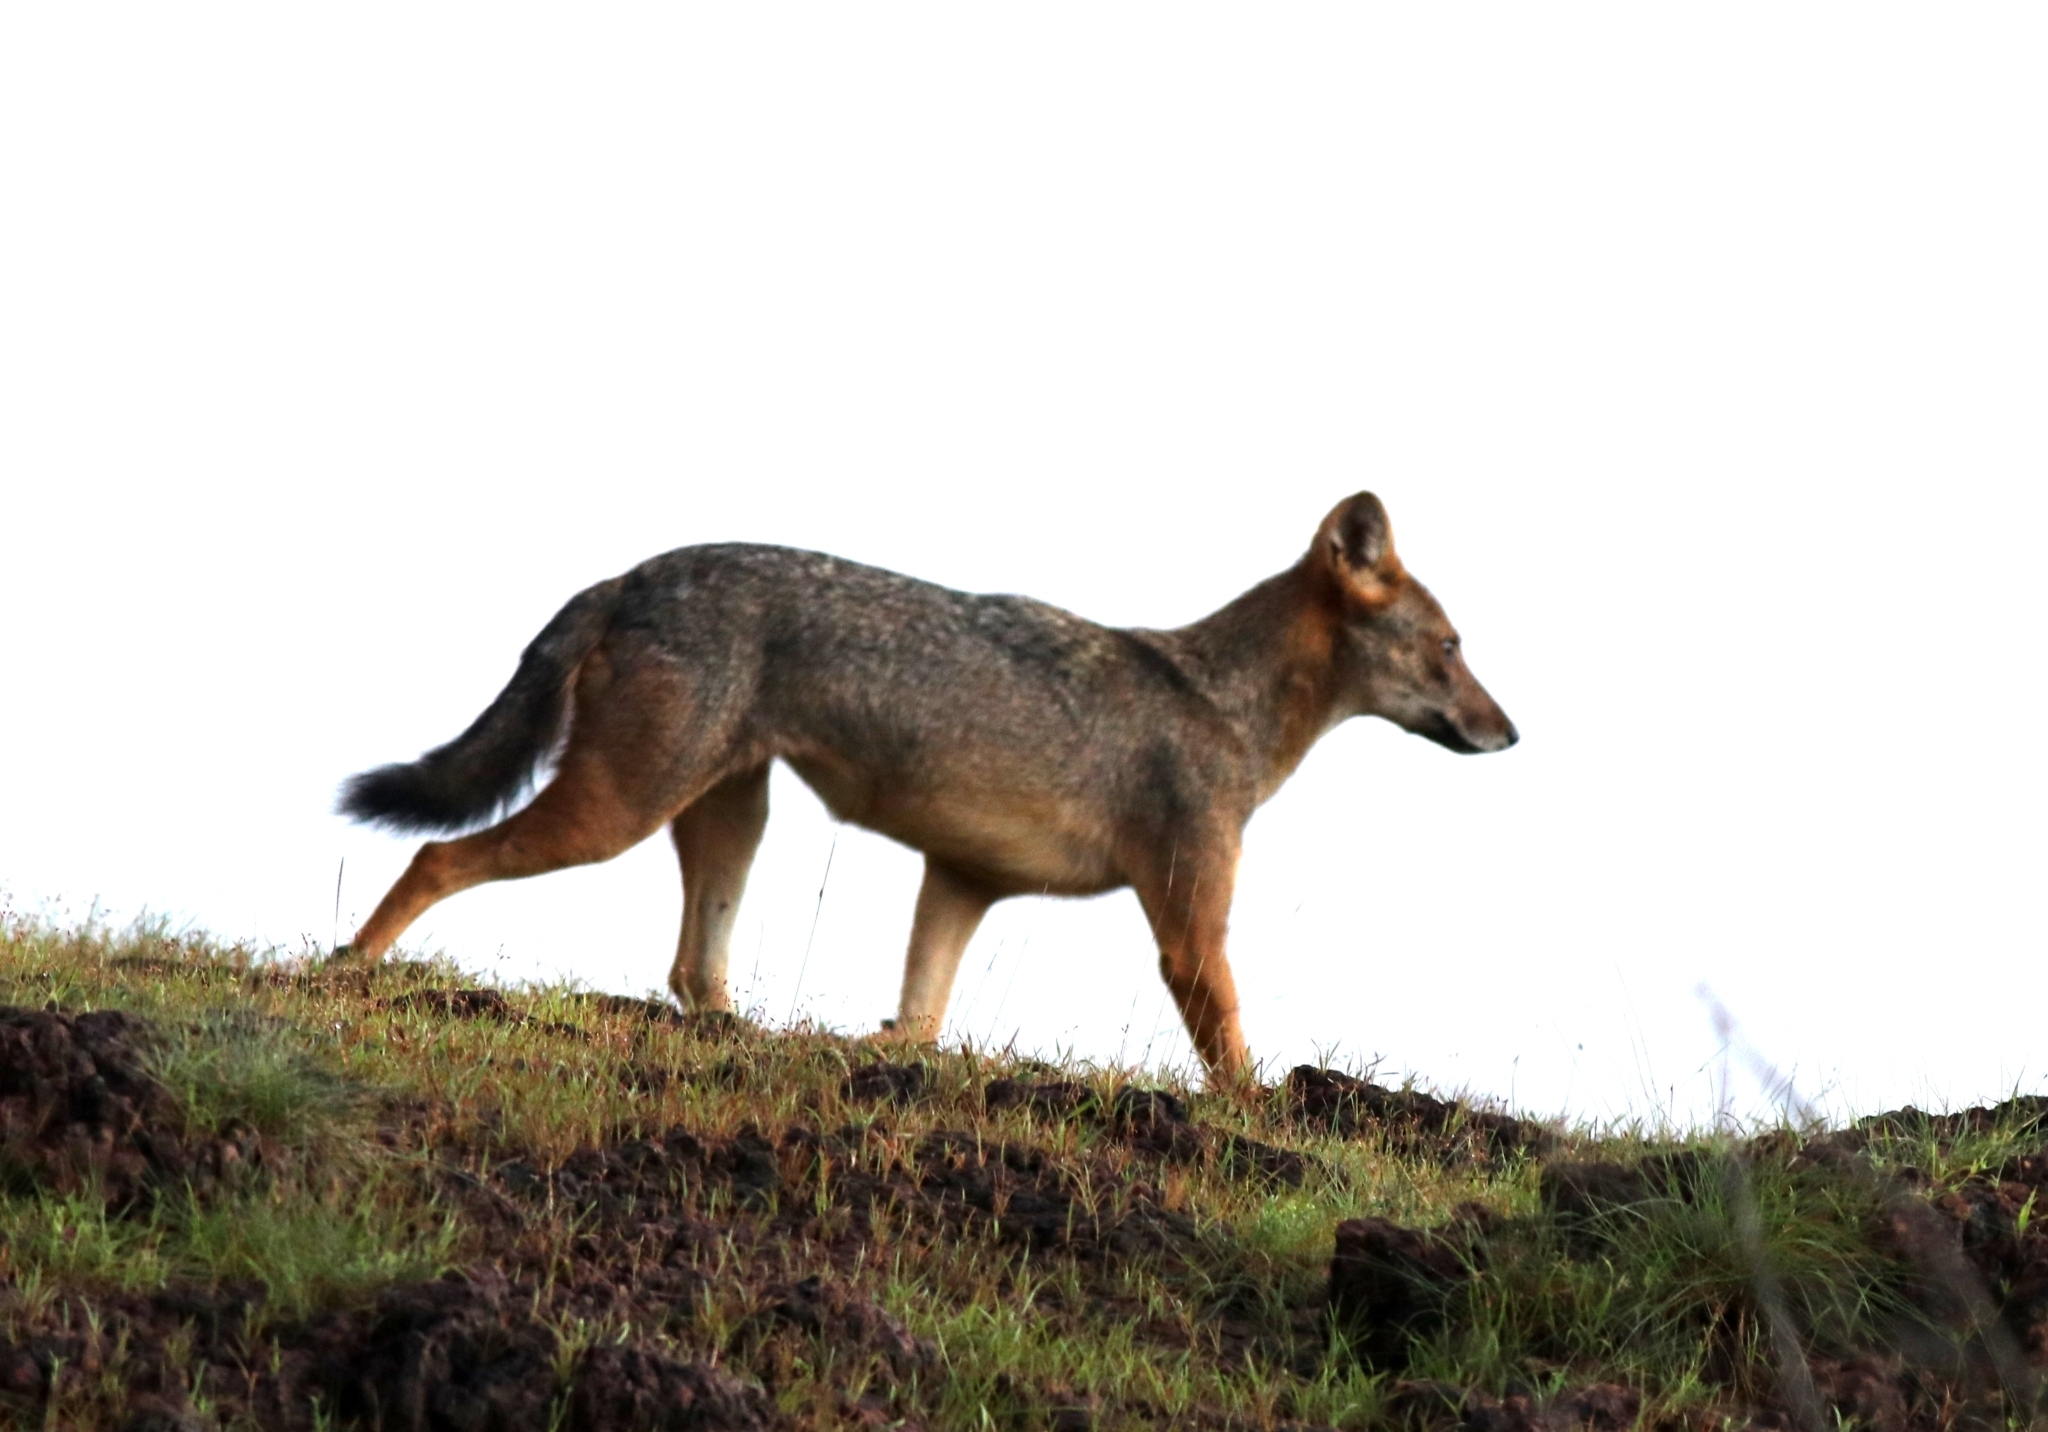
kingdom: Animalia
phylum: Chordata
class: Mammalia
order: Carnivora
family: Canidae
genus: Canis
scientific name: Canis aureus
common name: Golden jackal
